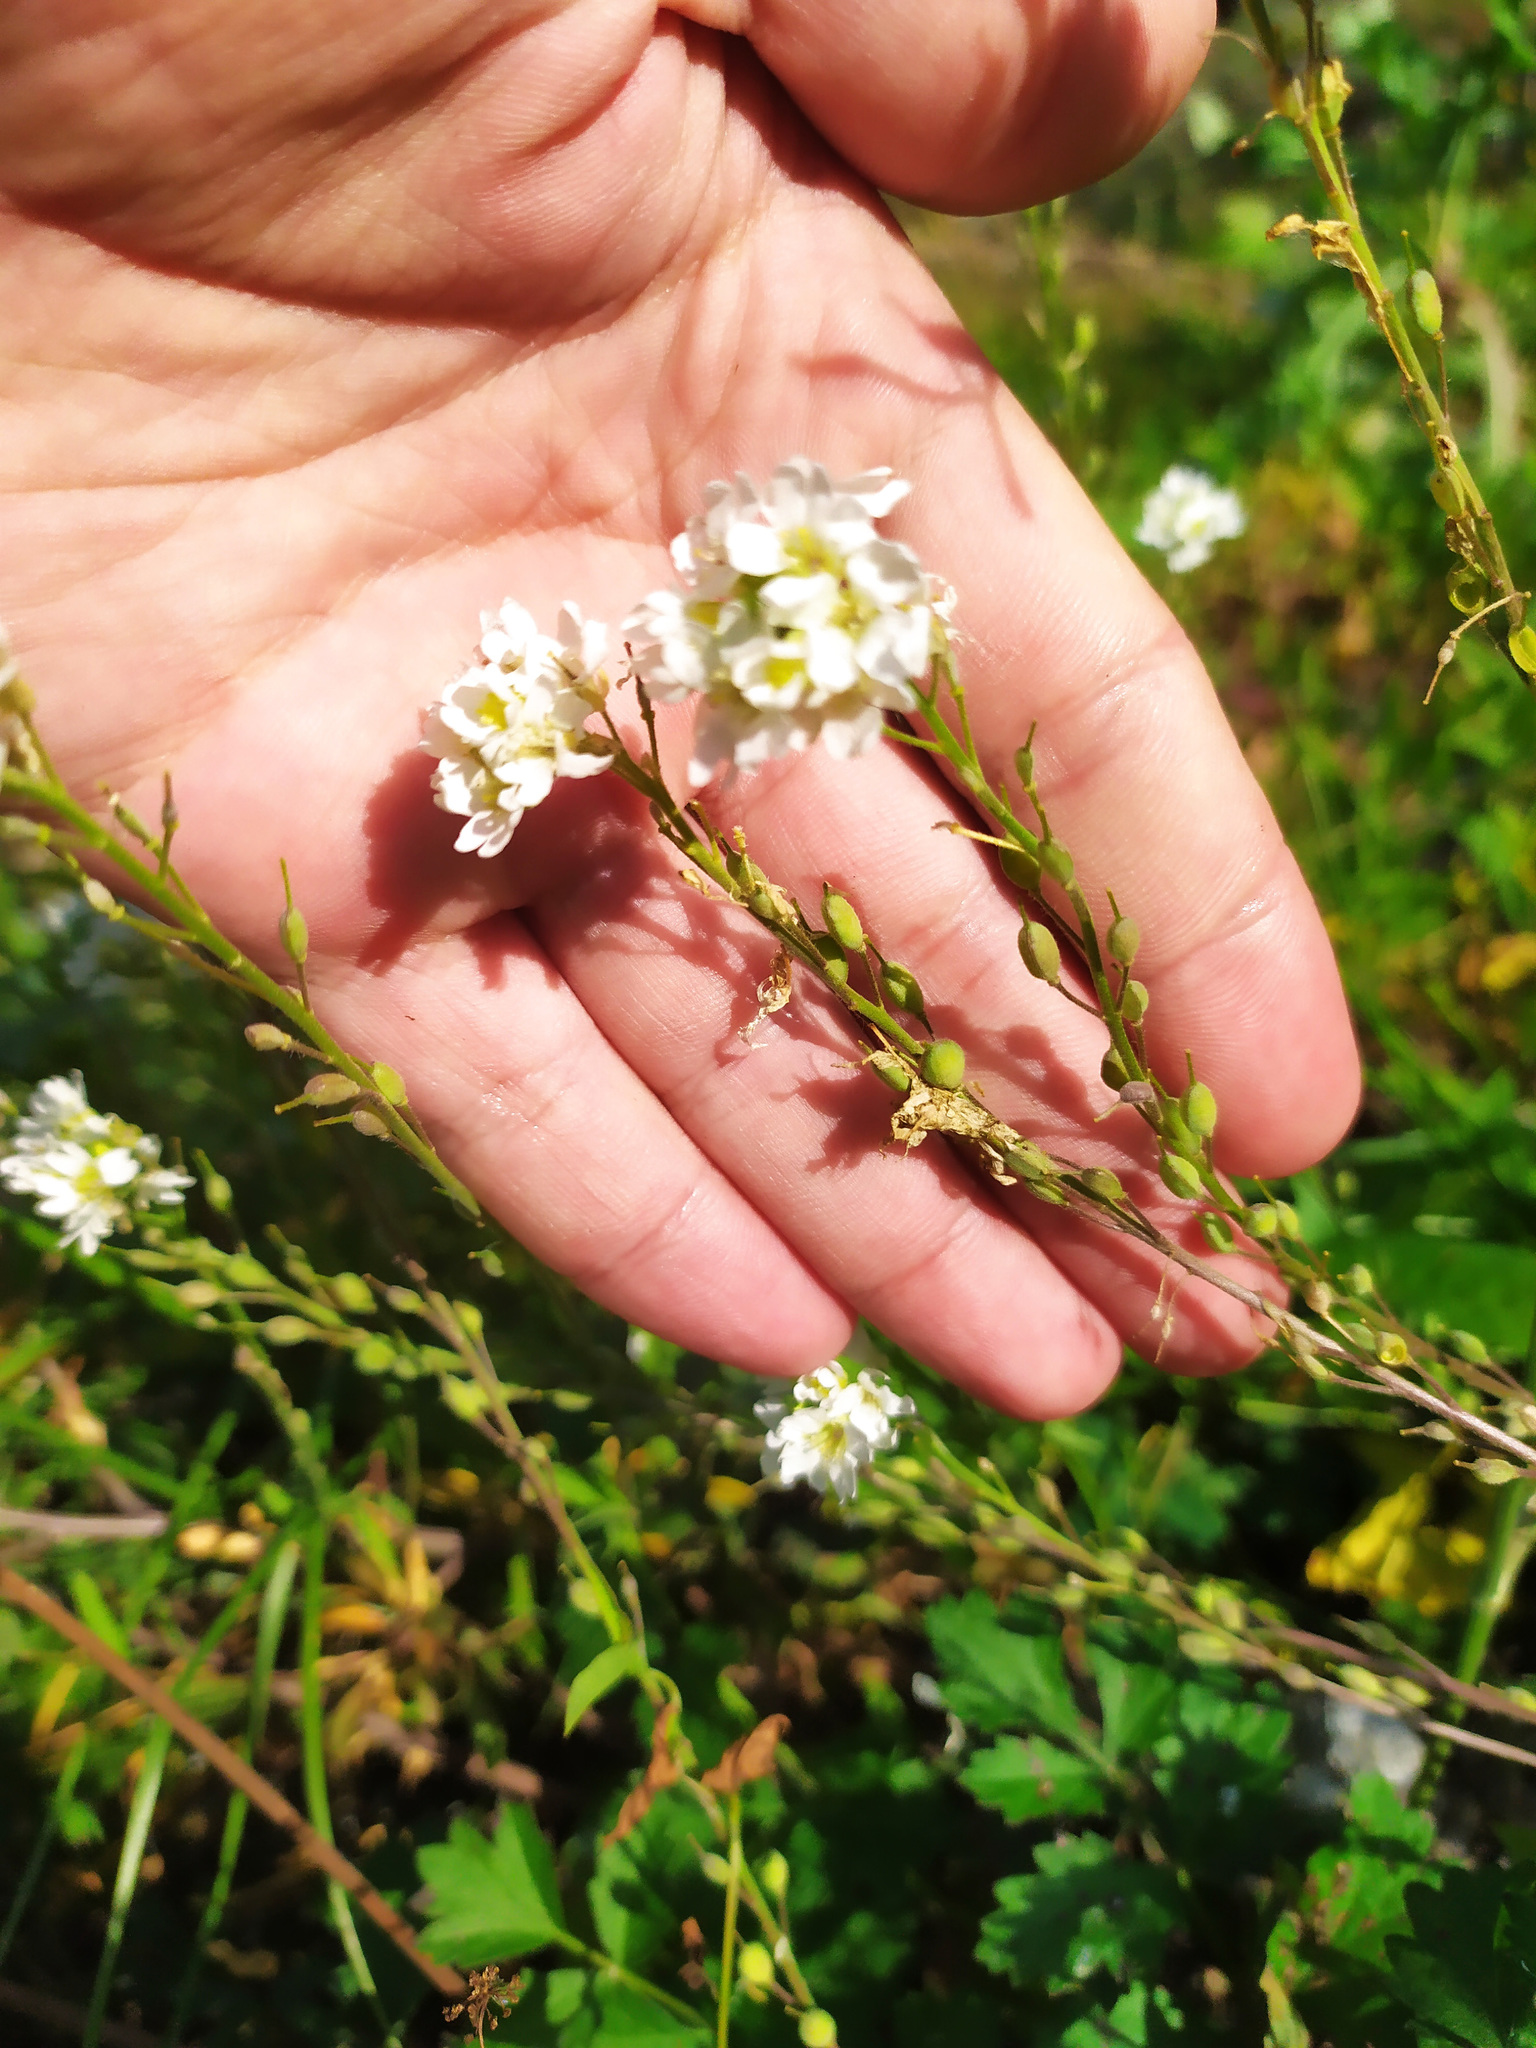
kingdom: Plantae
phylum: Tracheophyta
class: Magnoliopsida
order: Brassicales
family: Brassicaceae
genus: Berteroa
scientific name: Berteroa incana
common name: Hoary alison
